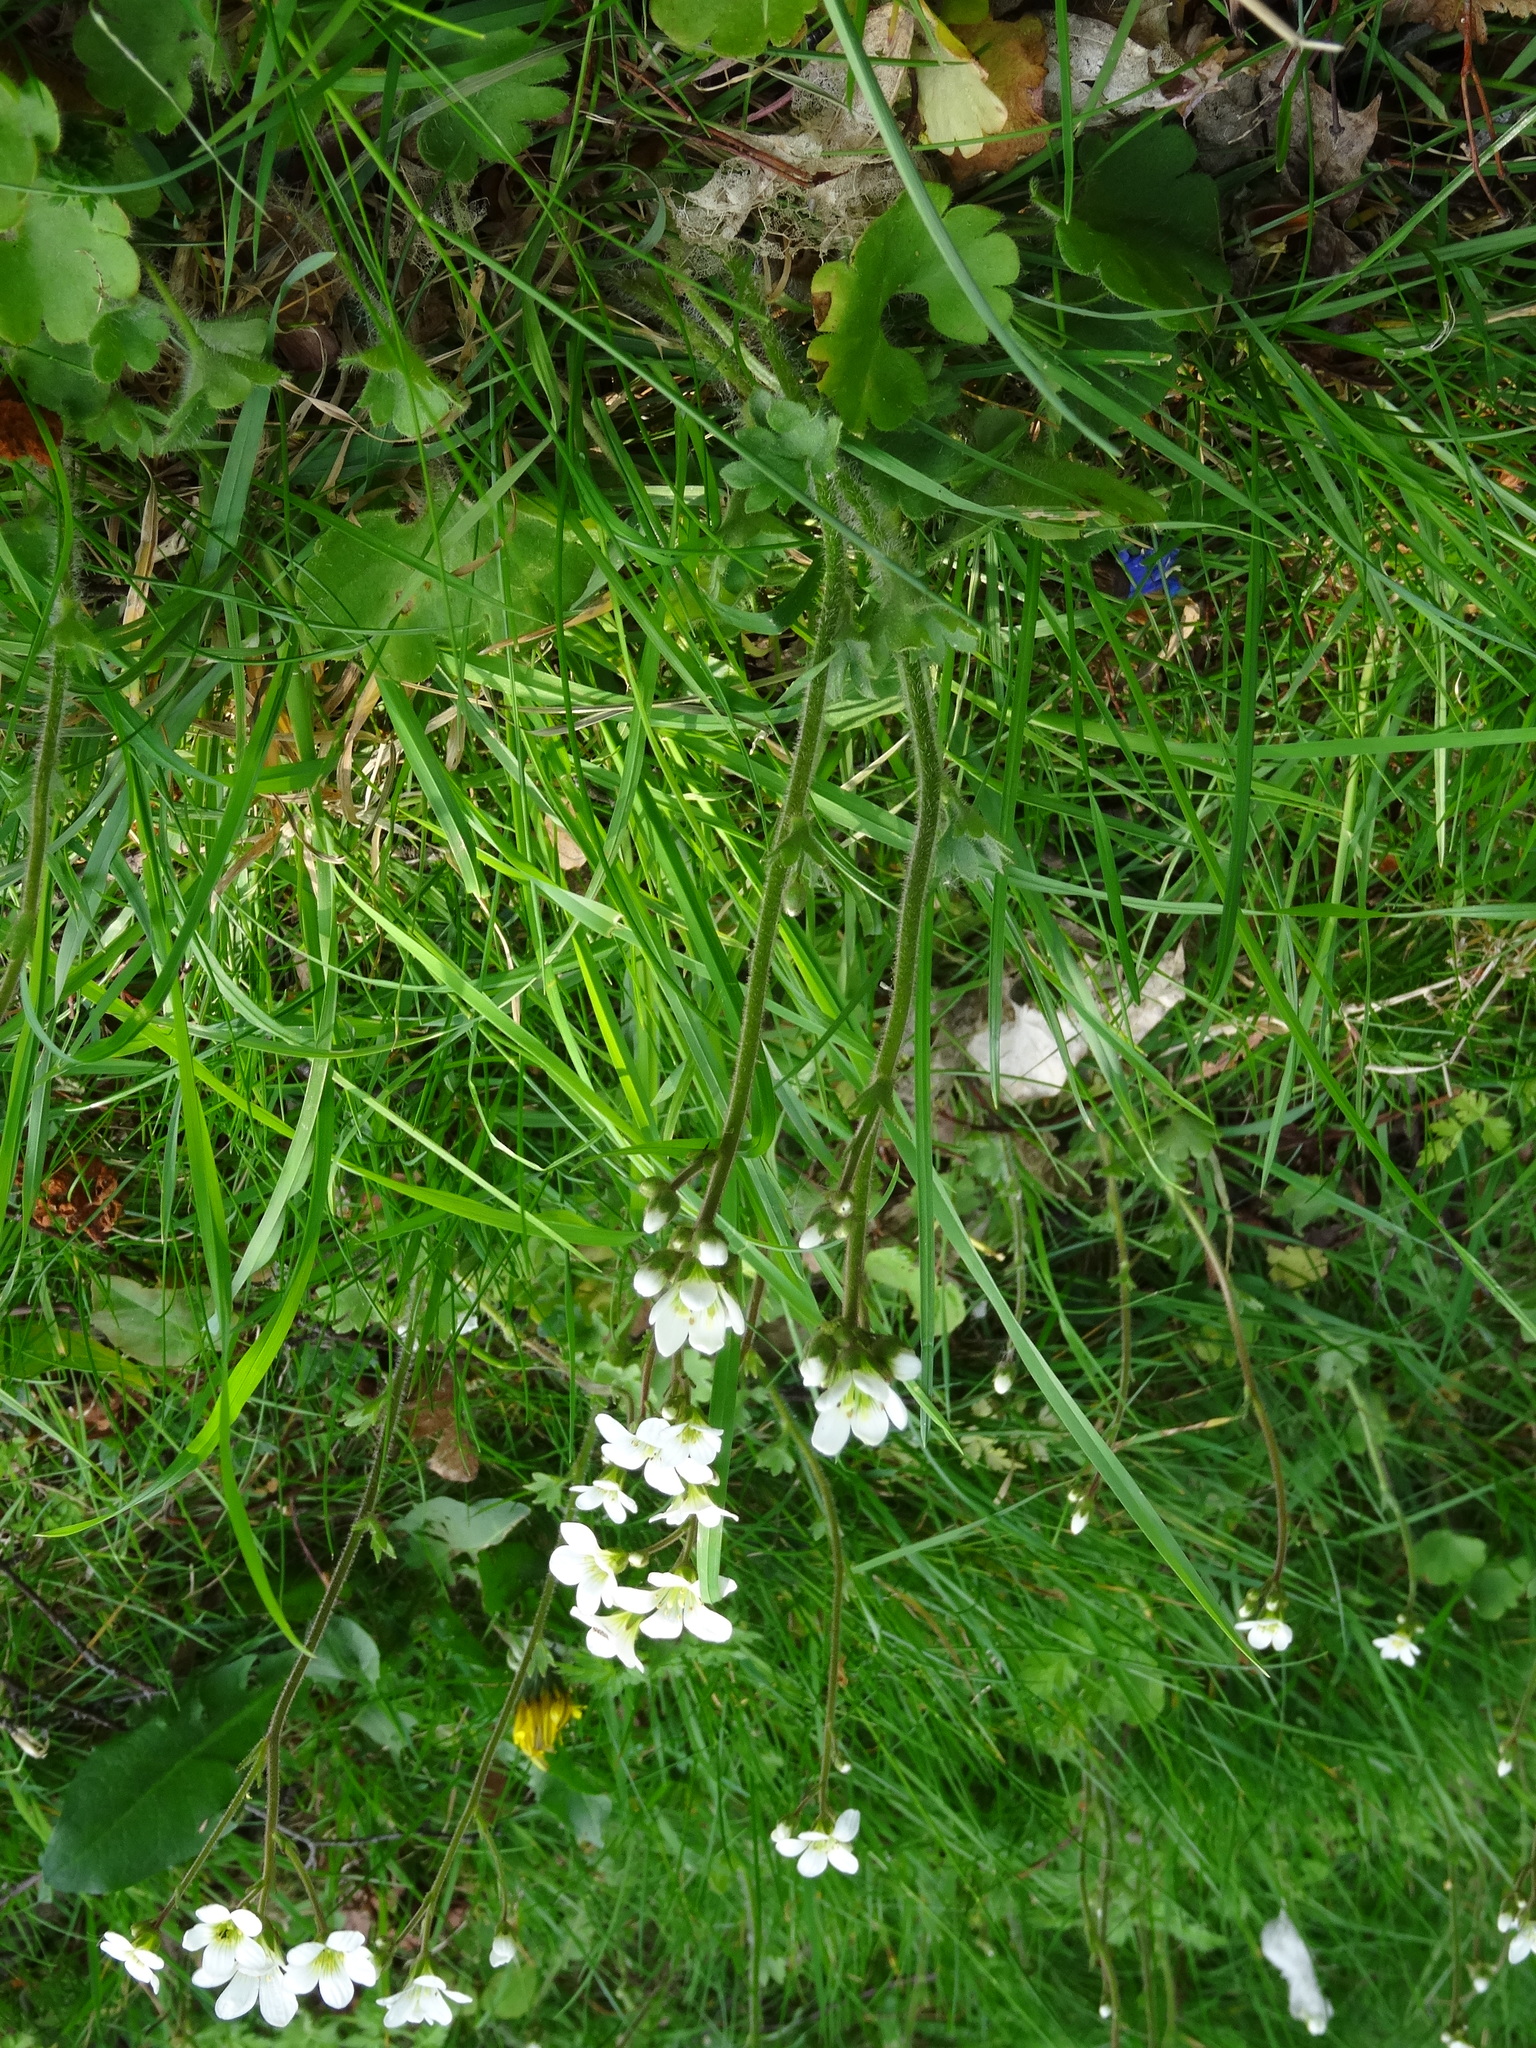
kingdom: Plantae
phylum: Tracheophyta
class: Magnoliopsida
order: Saxifragales
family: Saxifragaceae
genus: Saxifraga
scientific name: Saxifraga granulata
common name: Meadow saxifrage
